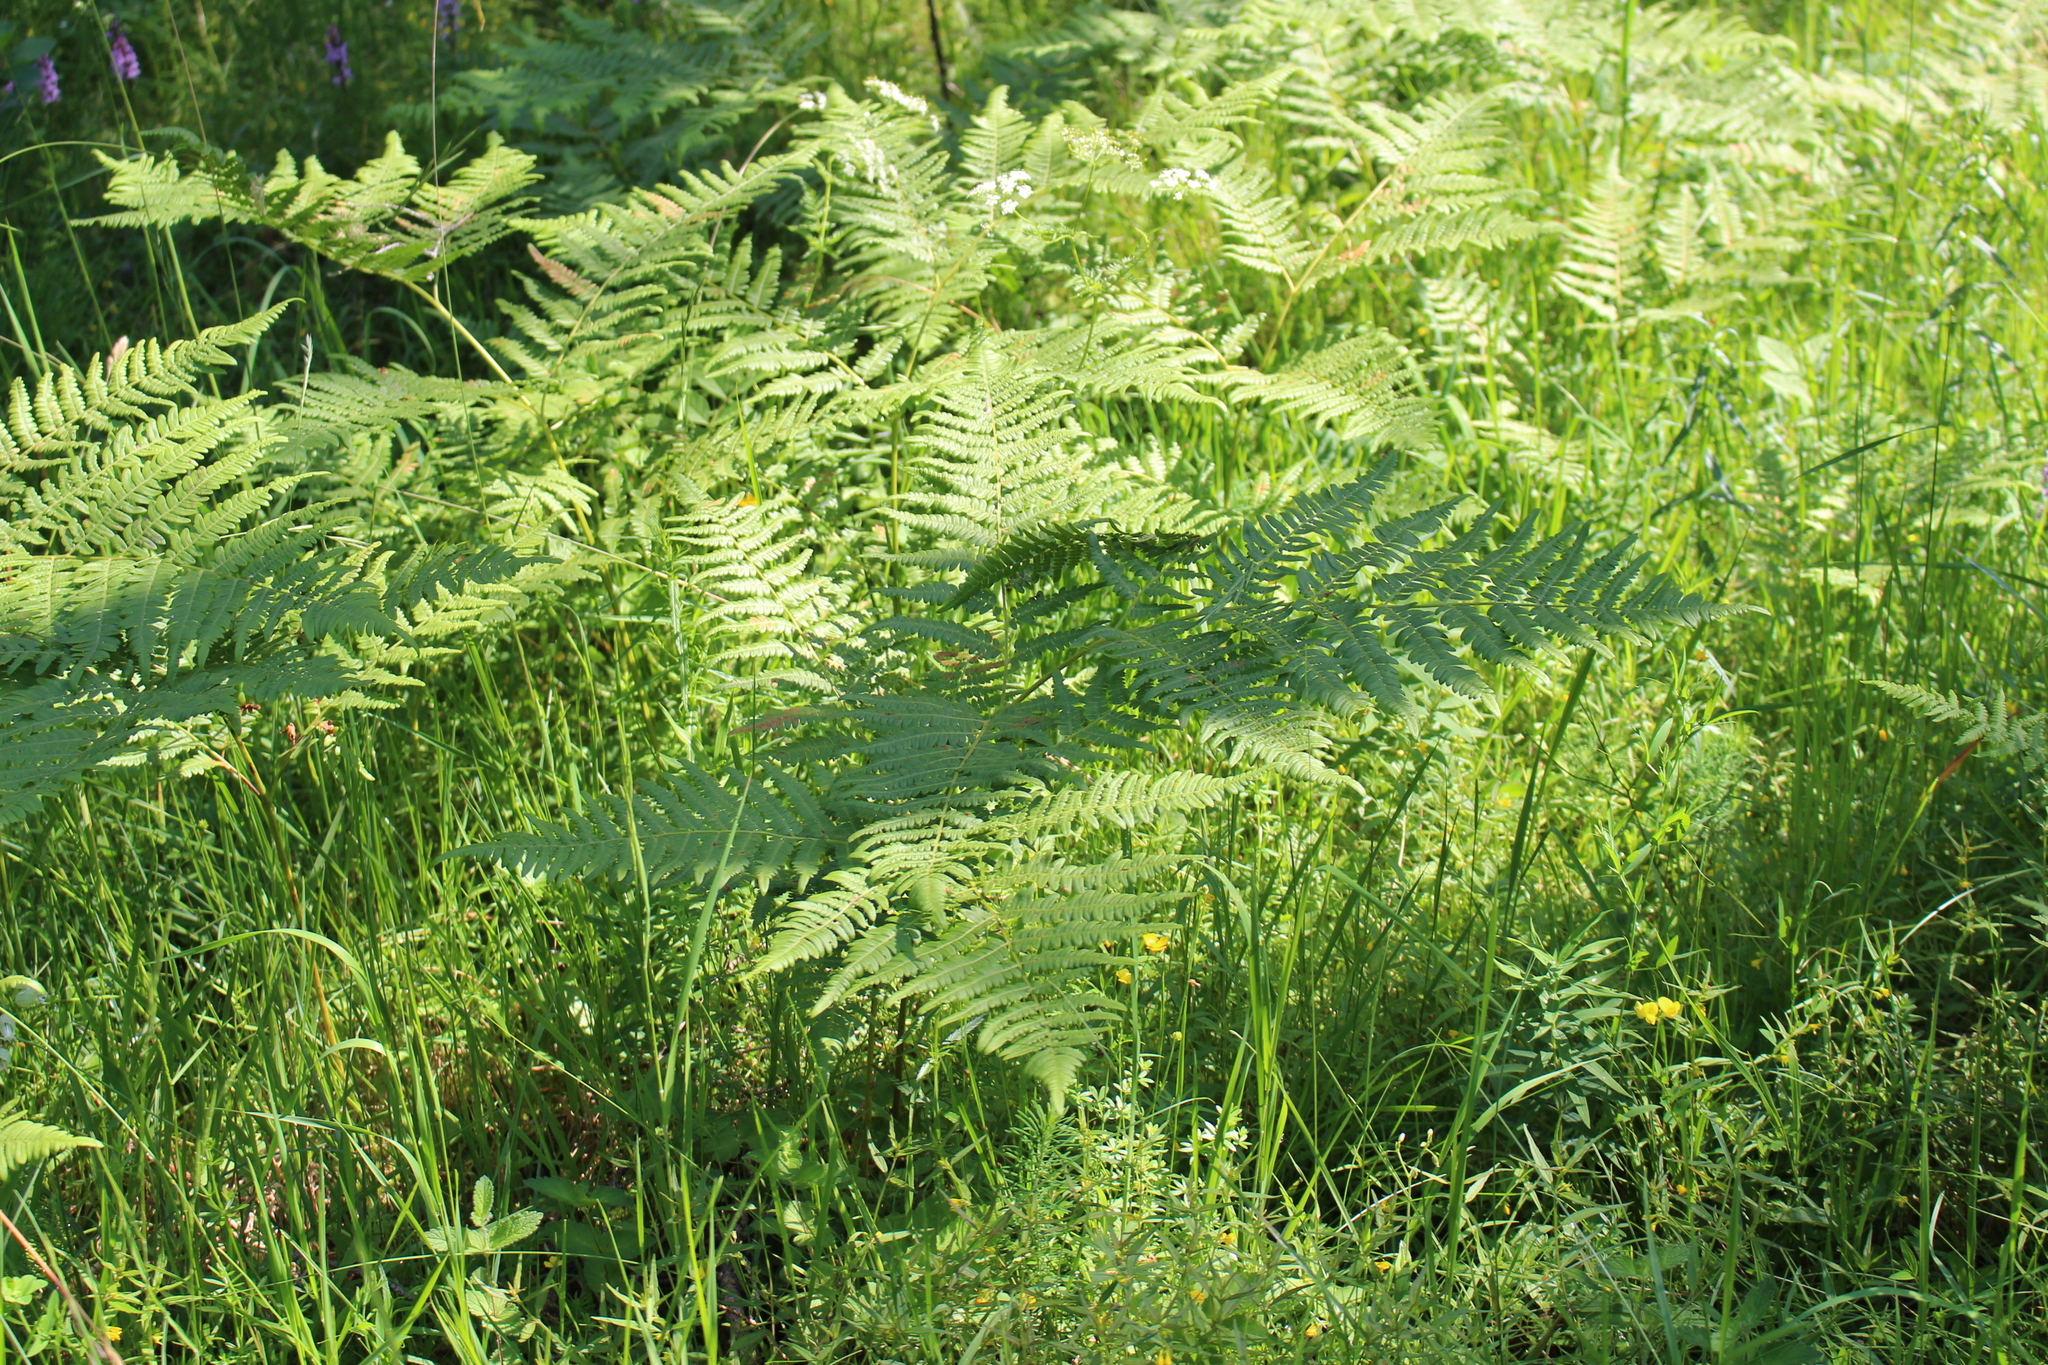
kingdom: Plantae
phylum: Tracheophyta
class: Polypodiopsida
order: Polypodiales
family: Dennstaedtiaceae
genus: Pteridium
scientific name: Pteridium aquilinum
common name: Bracken
